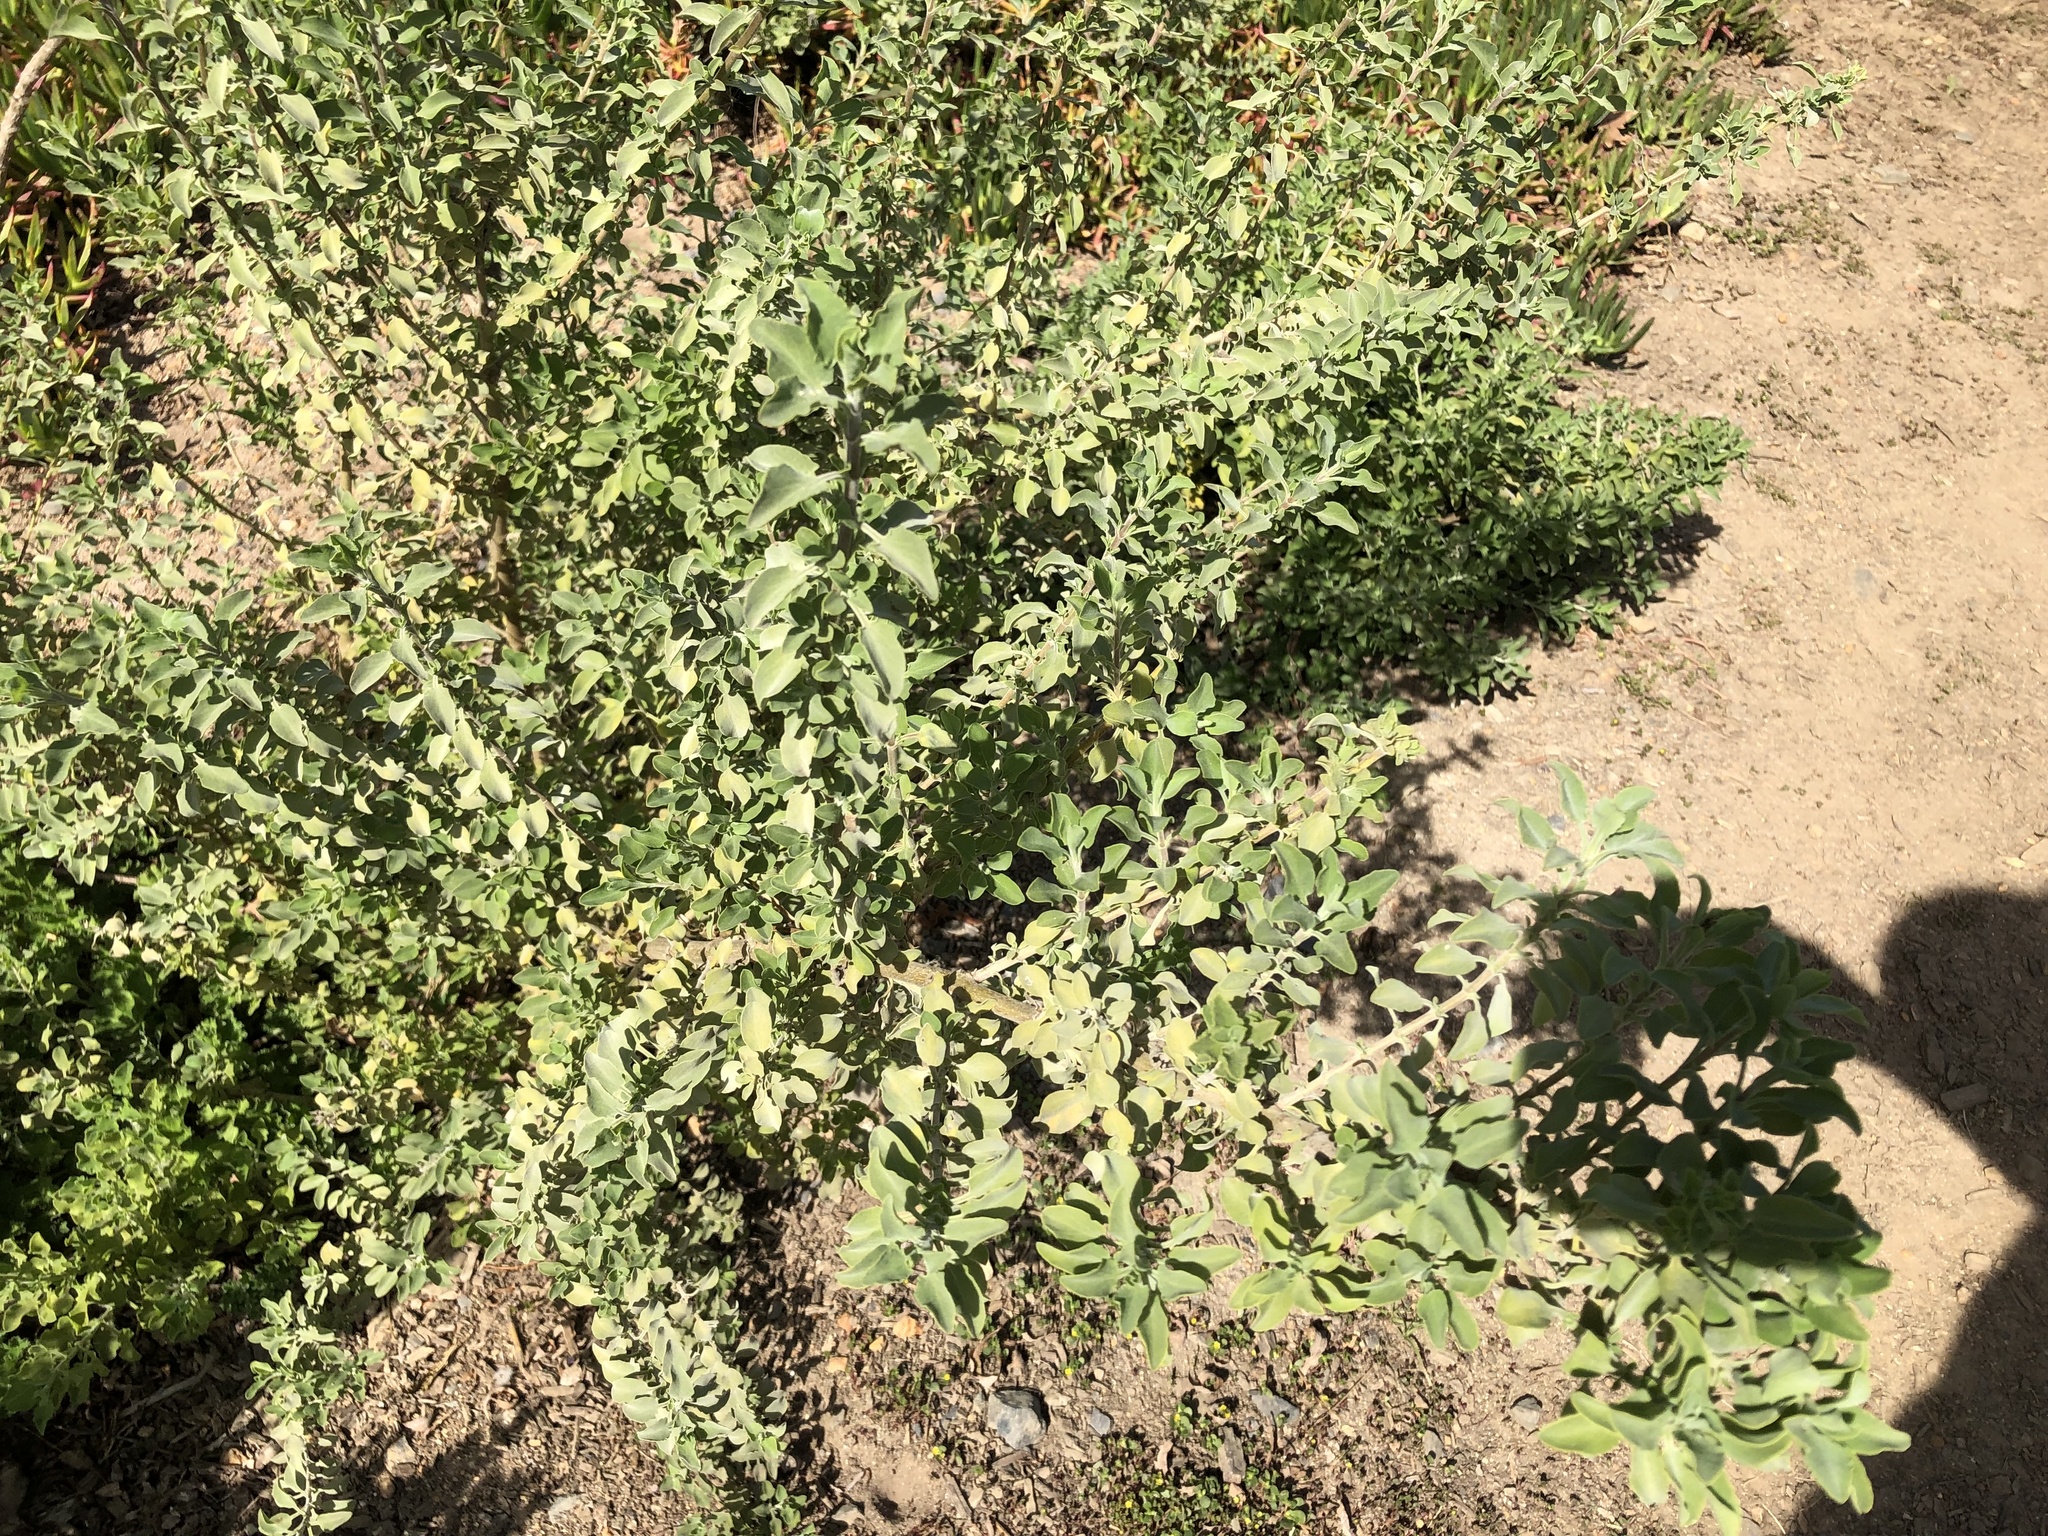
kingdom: Plantae
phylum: Tracheophyta
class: Magnoliopsida
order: Lamiales
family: Lamiaceae
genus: Salvia
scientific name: Salvia aurea
